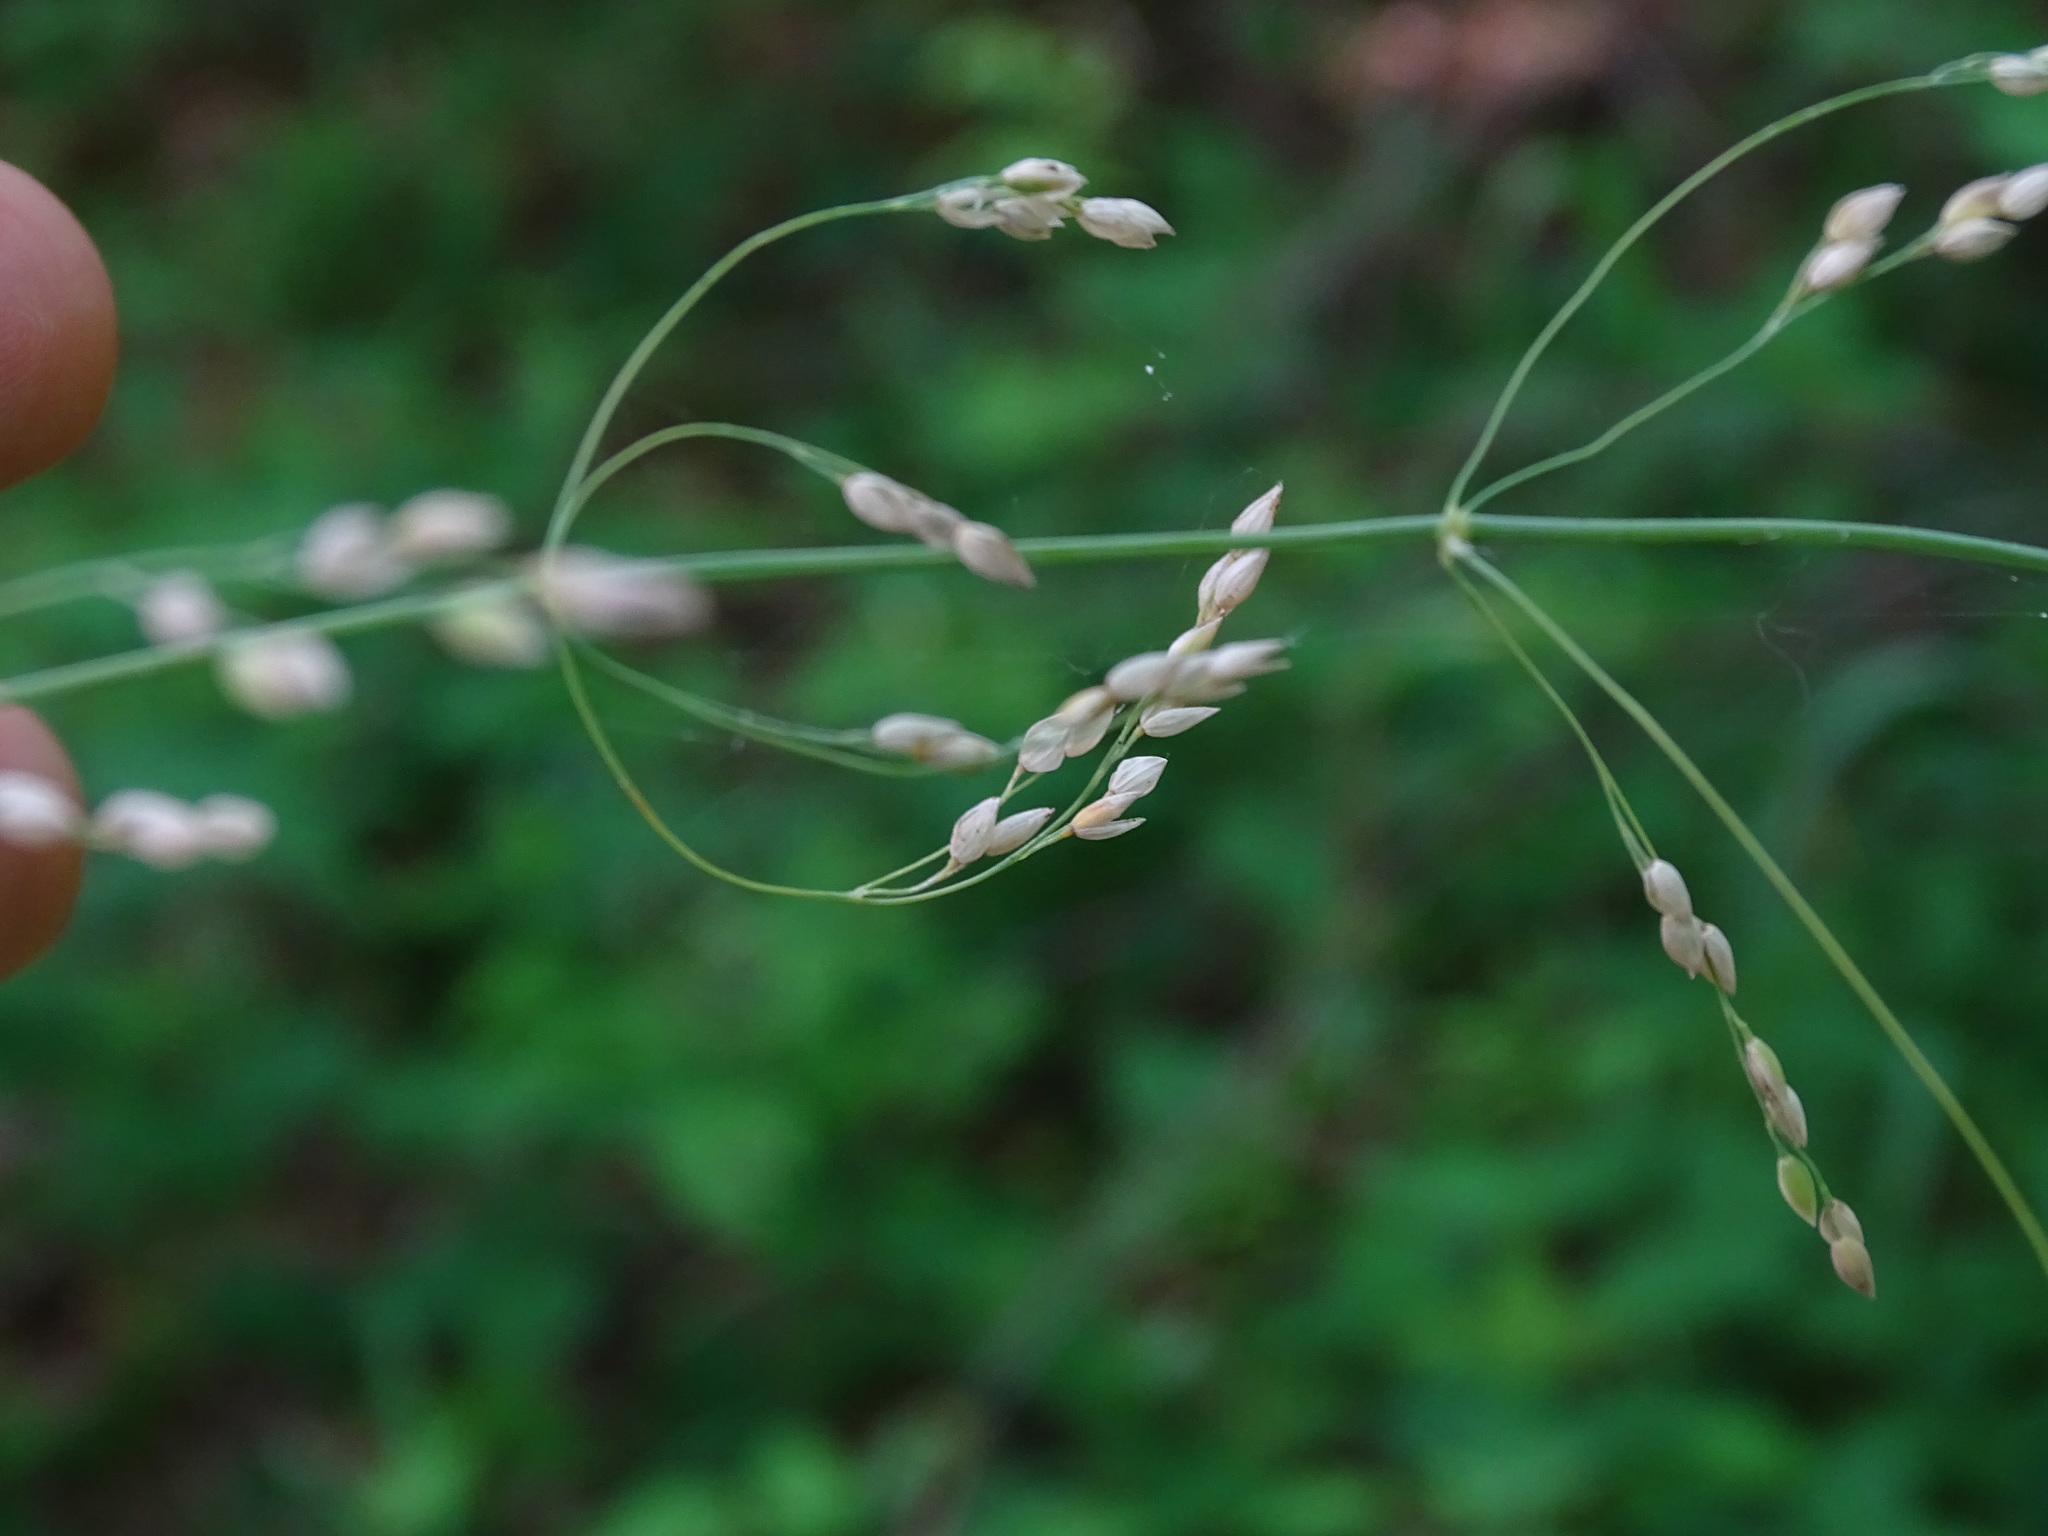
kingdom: Plantae
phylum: Tracheophyta
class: Liliopsida
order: Poales
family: Poaceae
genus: Milium
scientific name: Milium effusum
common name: Wood millet
